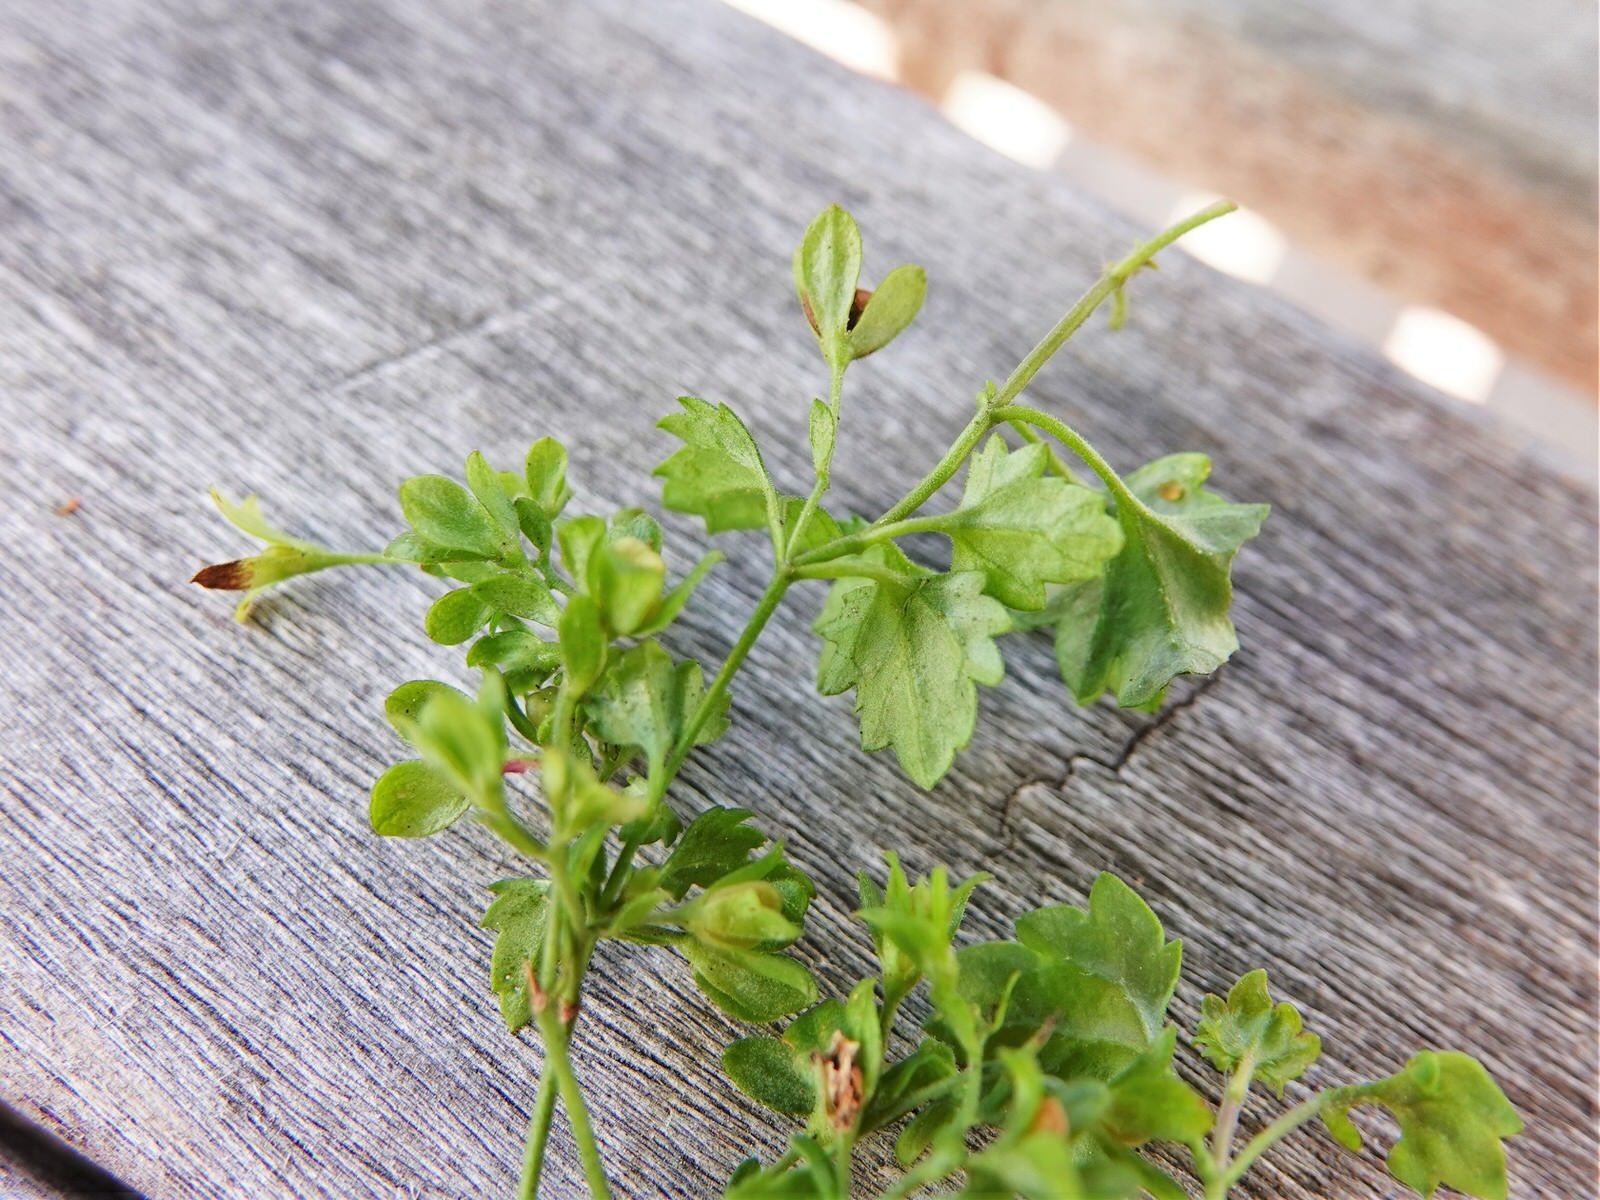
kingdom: Plantae
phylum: Tracheophyta
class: Magnoliopsida
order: Lamiales
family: Plantaginaceae
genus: Veronica
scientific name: Veronica plebeia
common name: Speedwell
